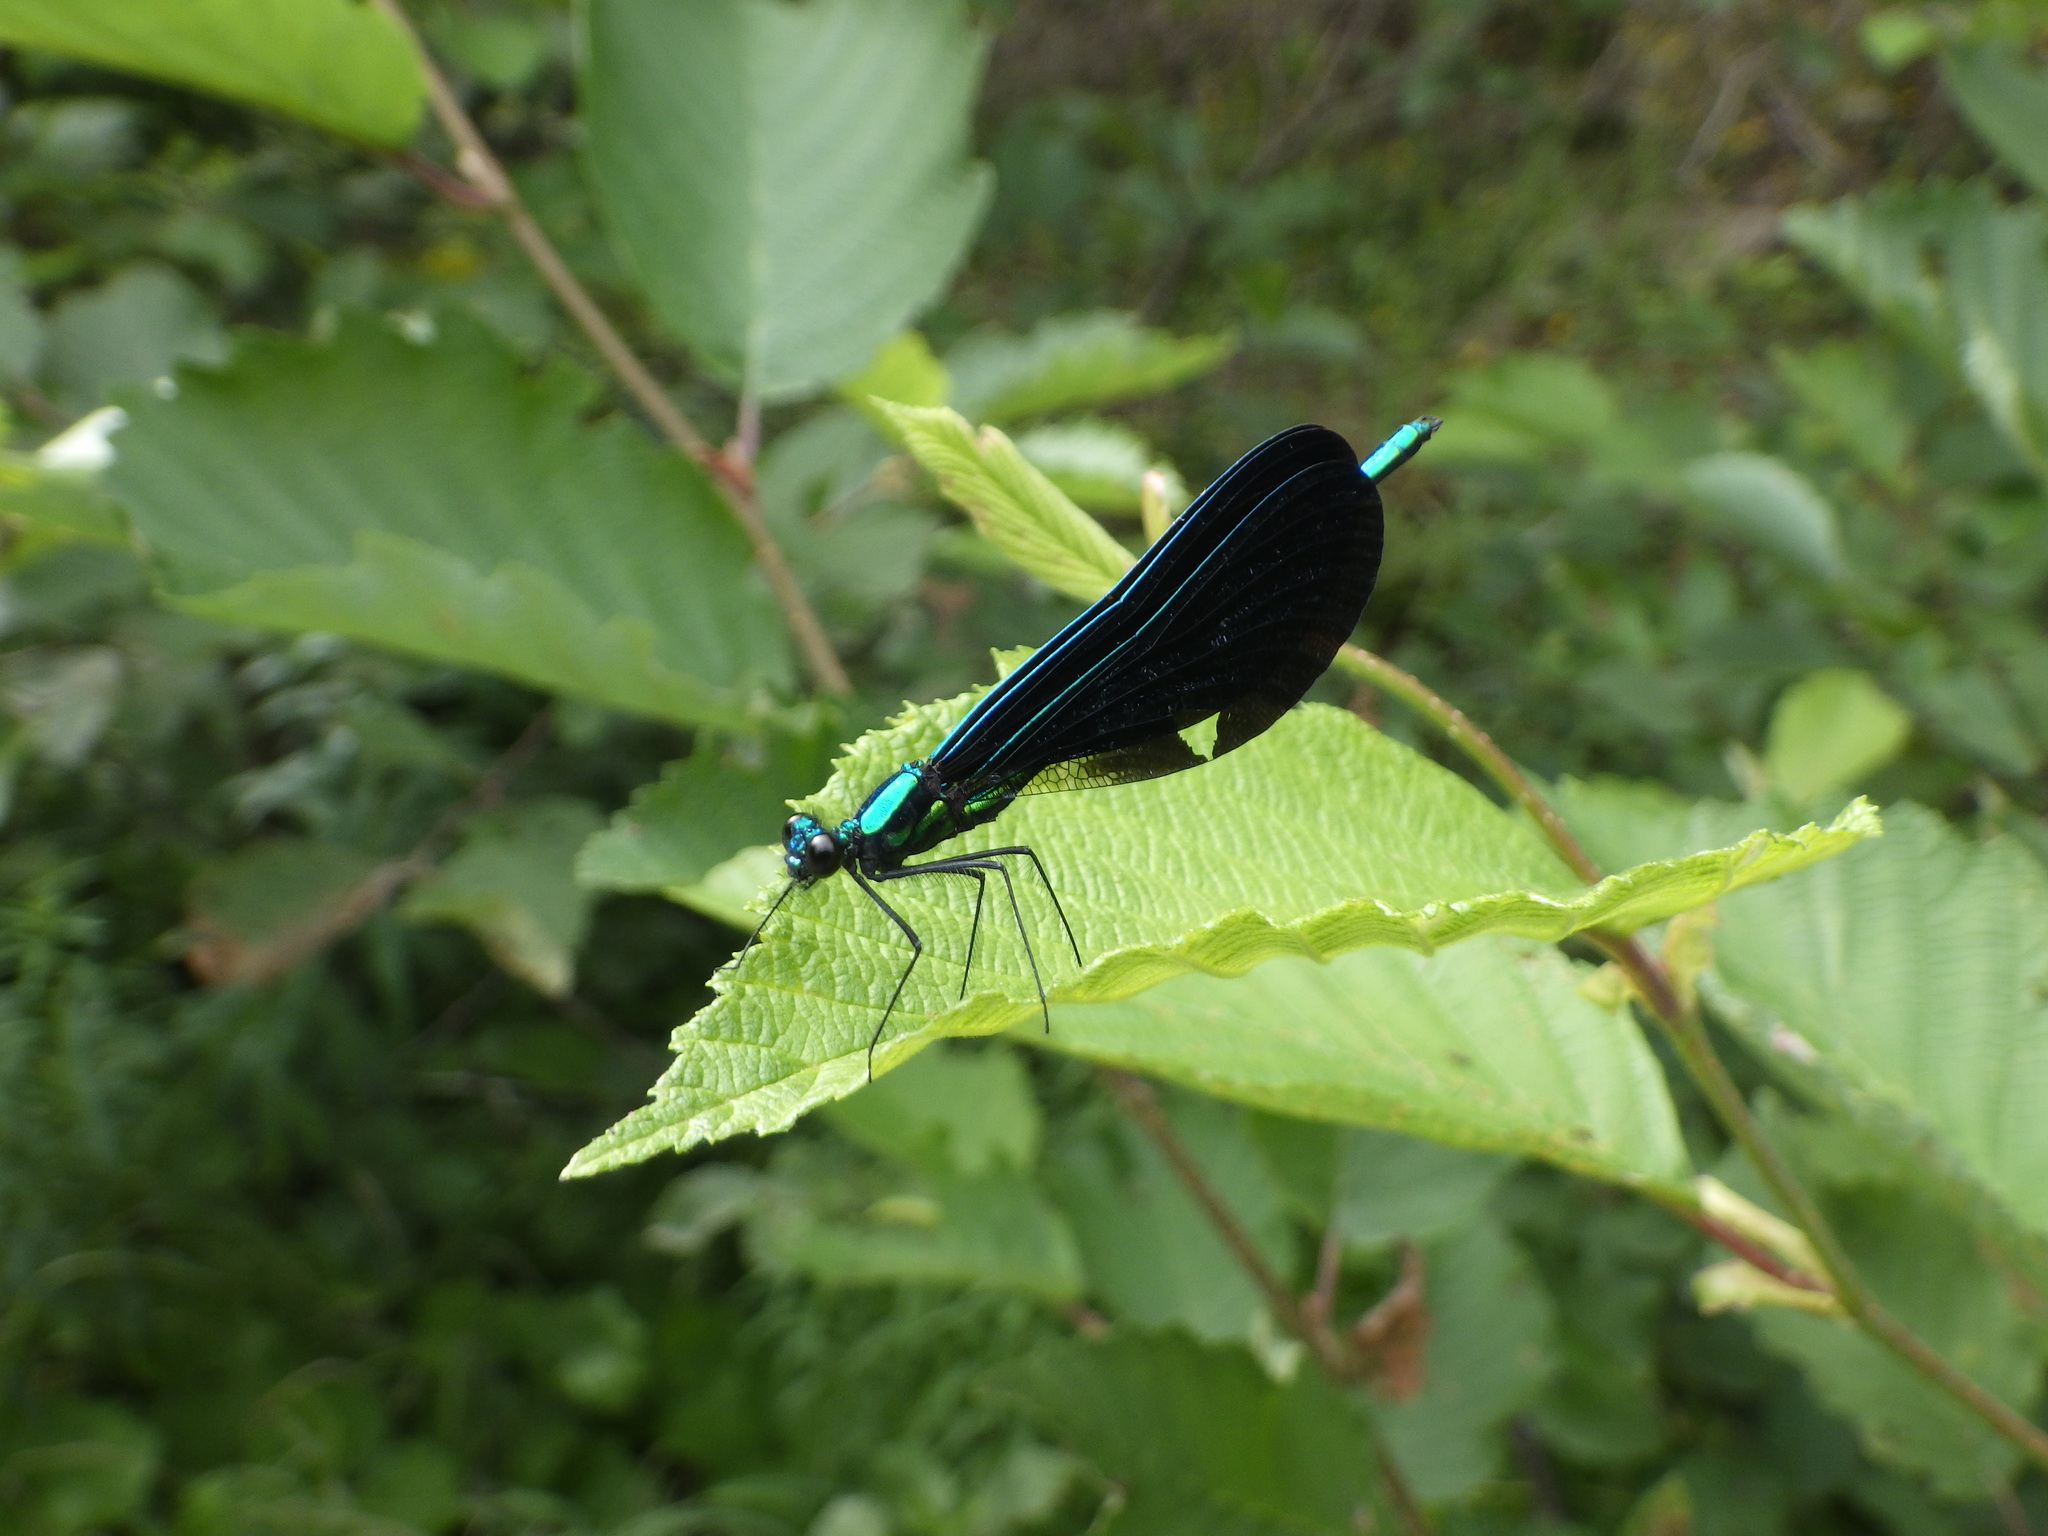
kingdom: Animalia
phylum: Arthropoda
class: Insecta
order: Odonata
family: Calopterygidae
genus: Calopteryx
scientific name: Calopteryx maculata
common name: Ebony jewelwing
